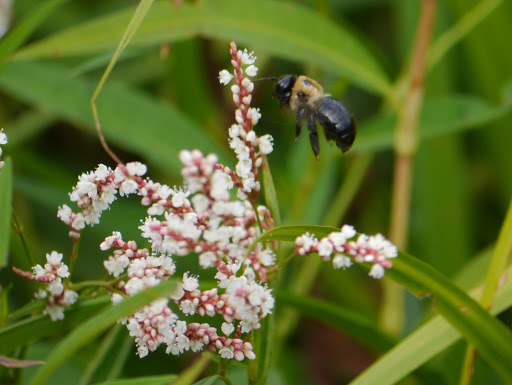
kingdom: Animalia
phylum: Arthropoda
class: Insecta
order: Hymenoptera
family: Apidae
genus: Xylocopa
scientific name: Xylocopa virginica
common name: Carpenter bee
